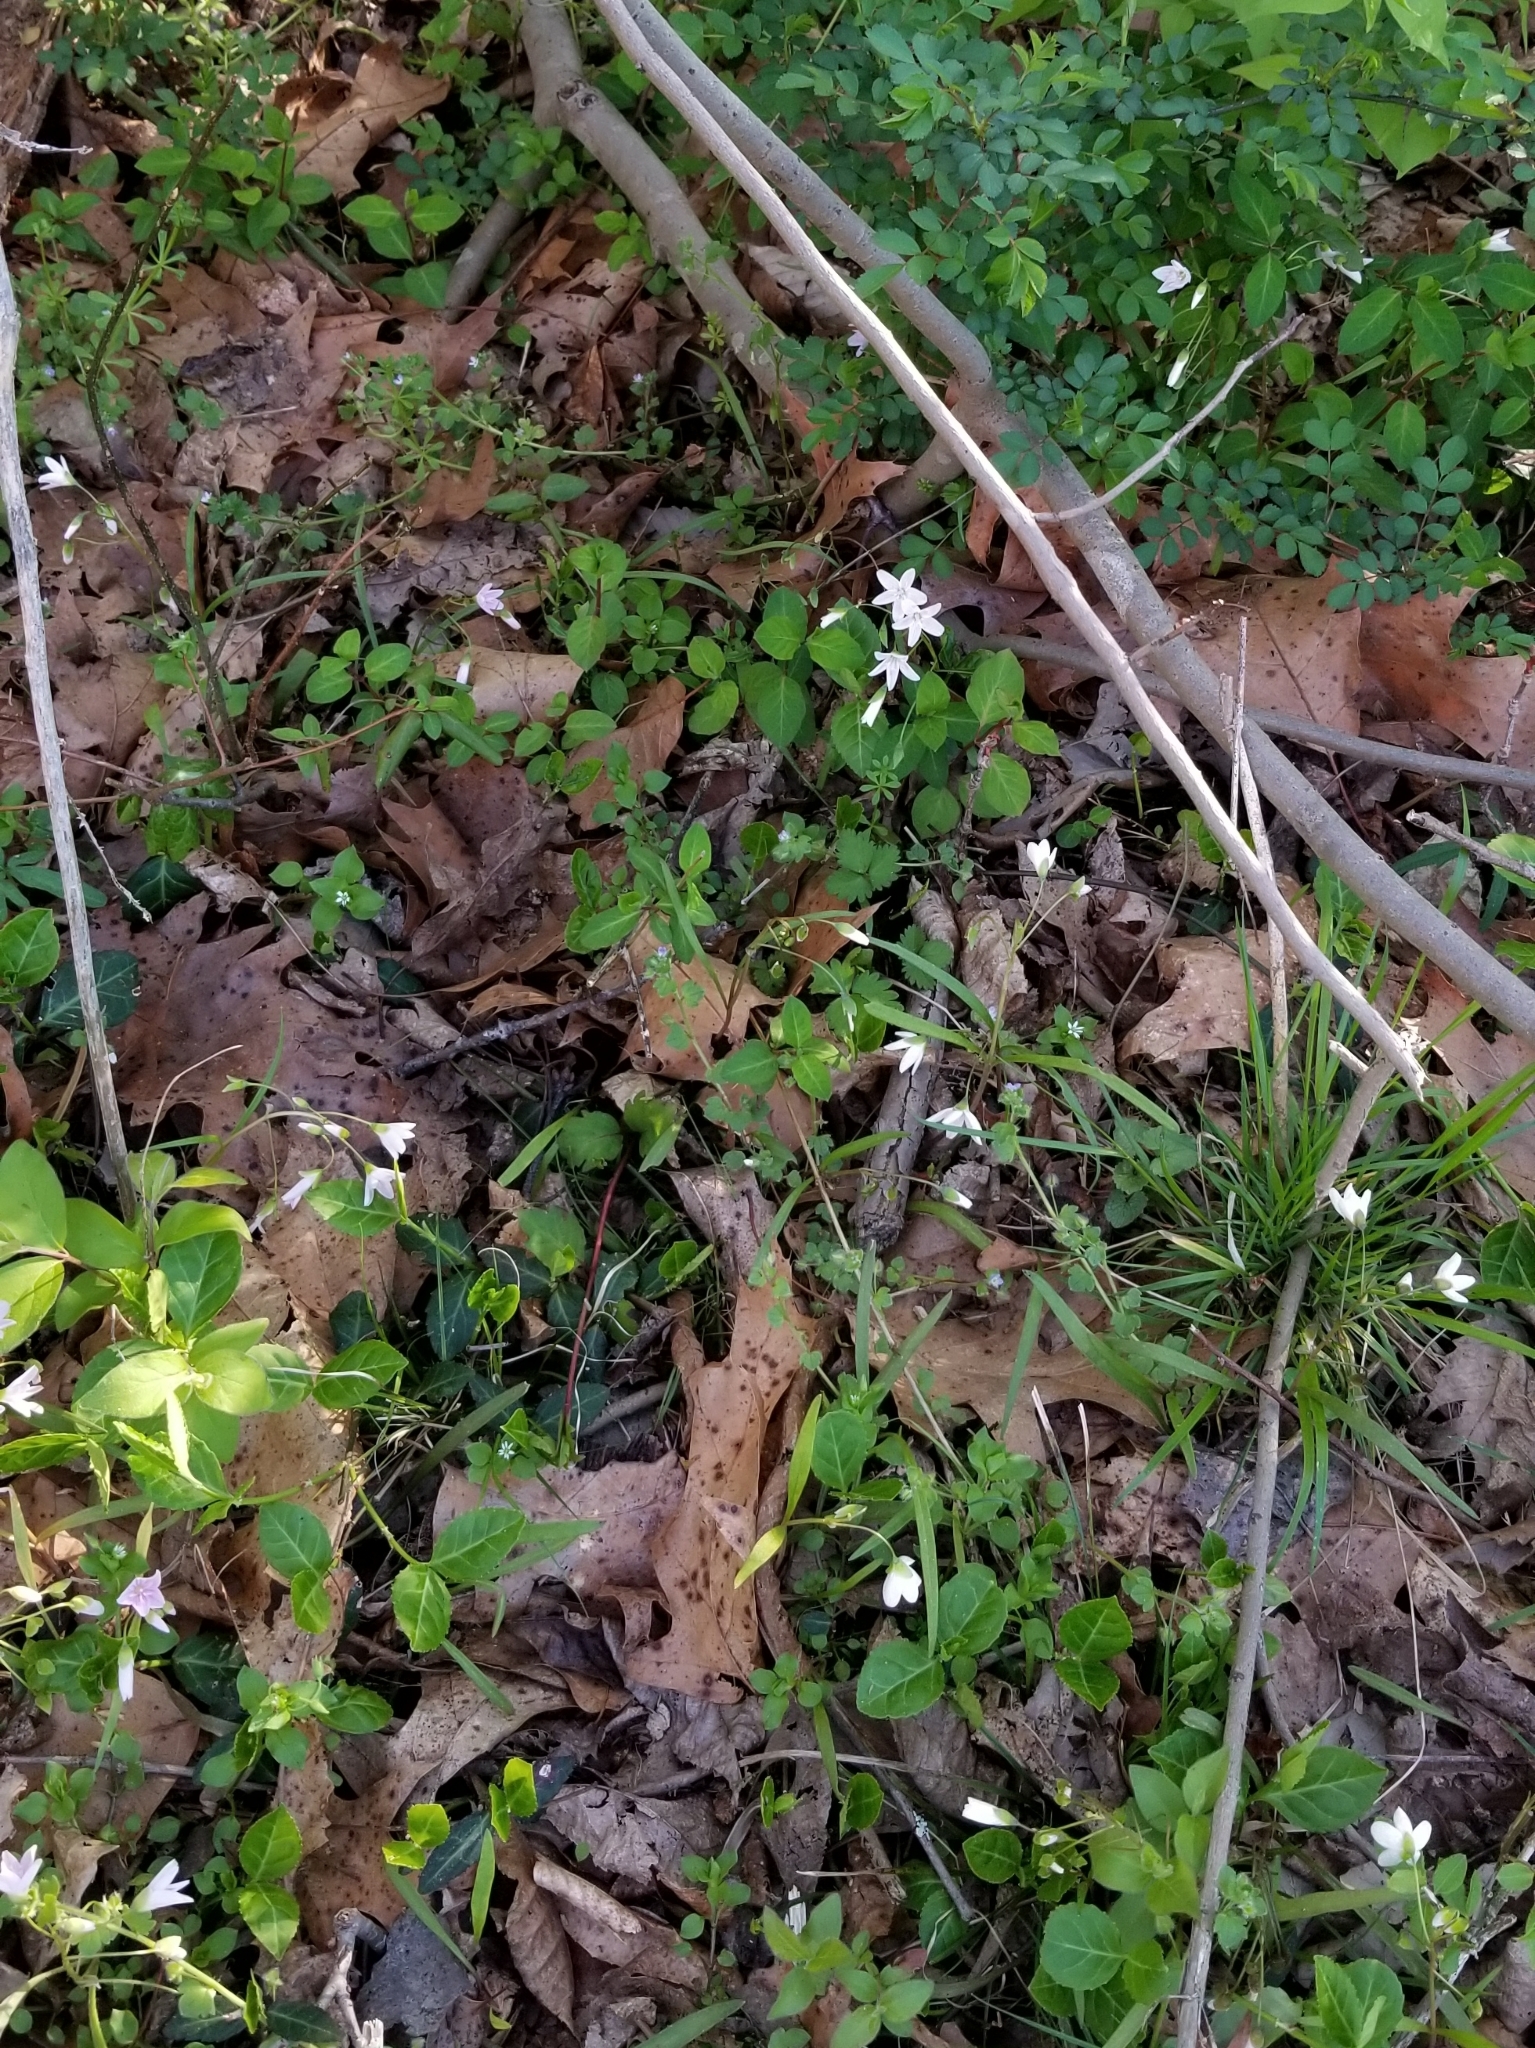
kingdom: Plantae
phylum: Tracheophyta
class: Magnoliopsida
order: Caryophyllales
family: Montiaceae
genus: Claytonia
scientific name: Claytonia virginica
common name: Virginia springbeauty
